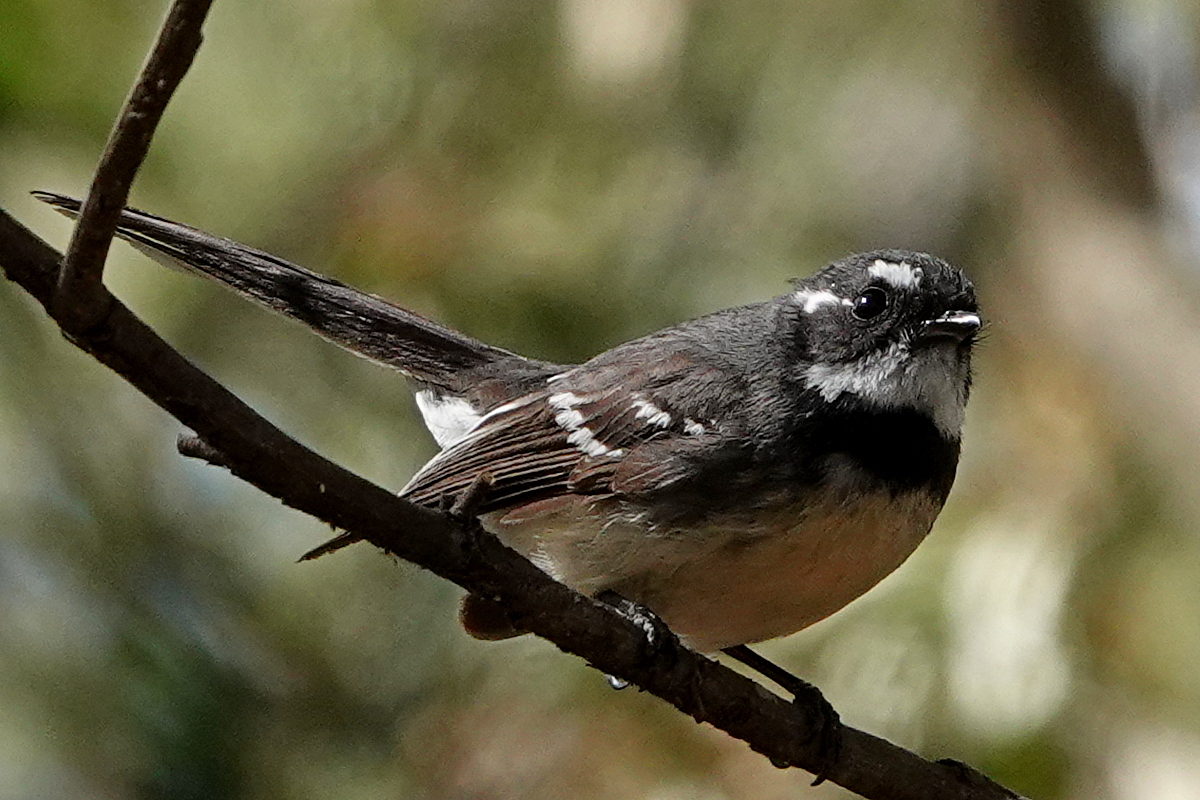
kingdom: Animalia
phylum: Chordata
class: Aves
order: Passeriformes
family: Rhipiduridae
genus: Rhipidura
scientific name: Rhipidura albiscapa
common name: Grey fantail
